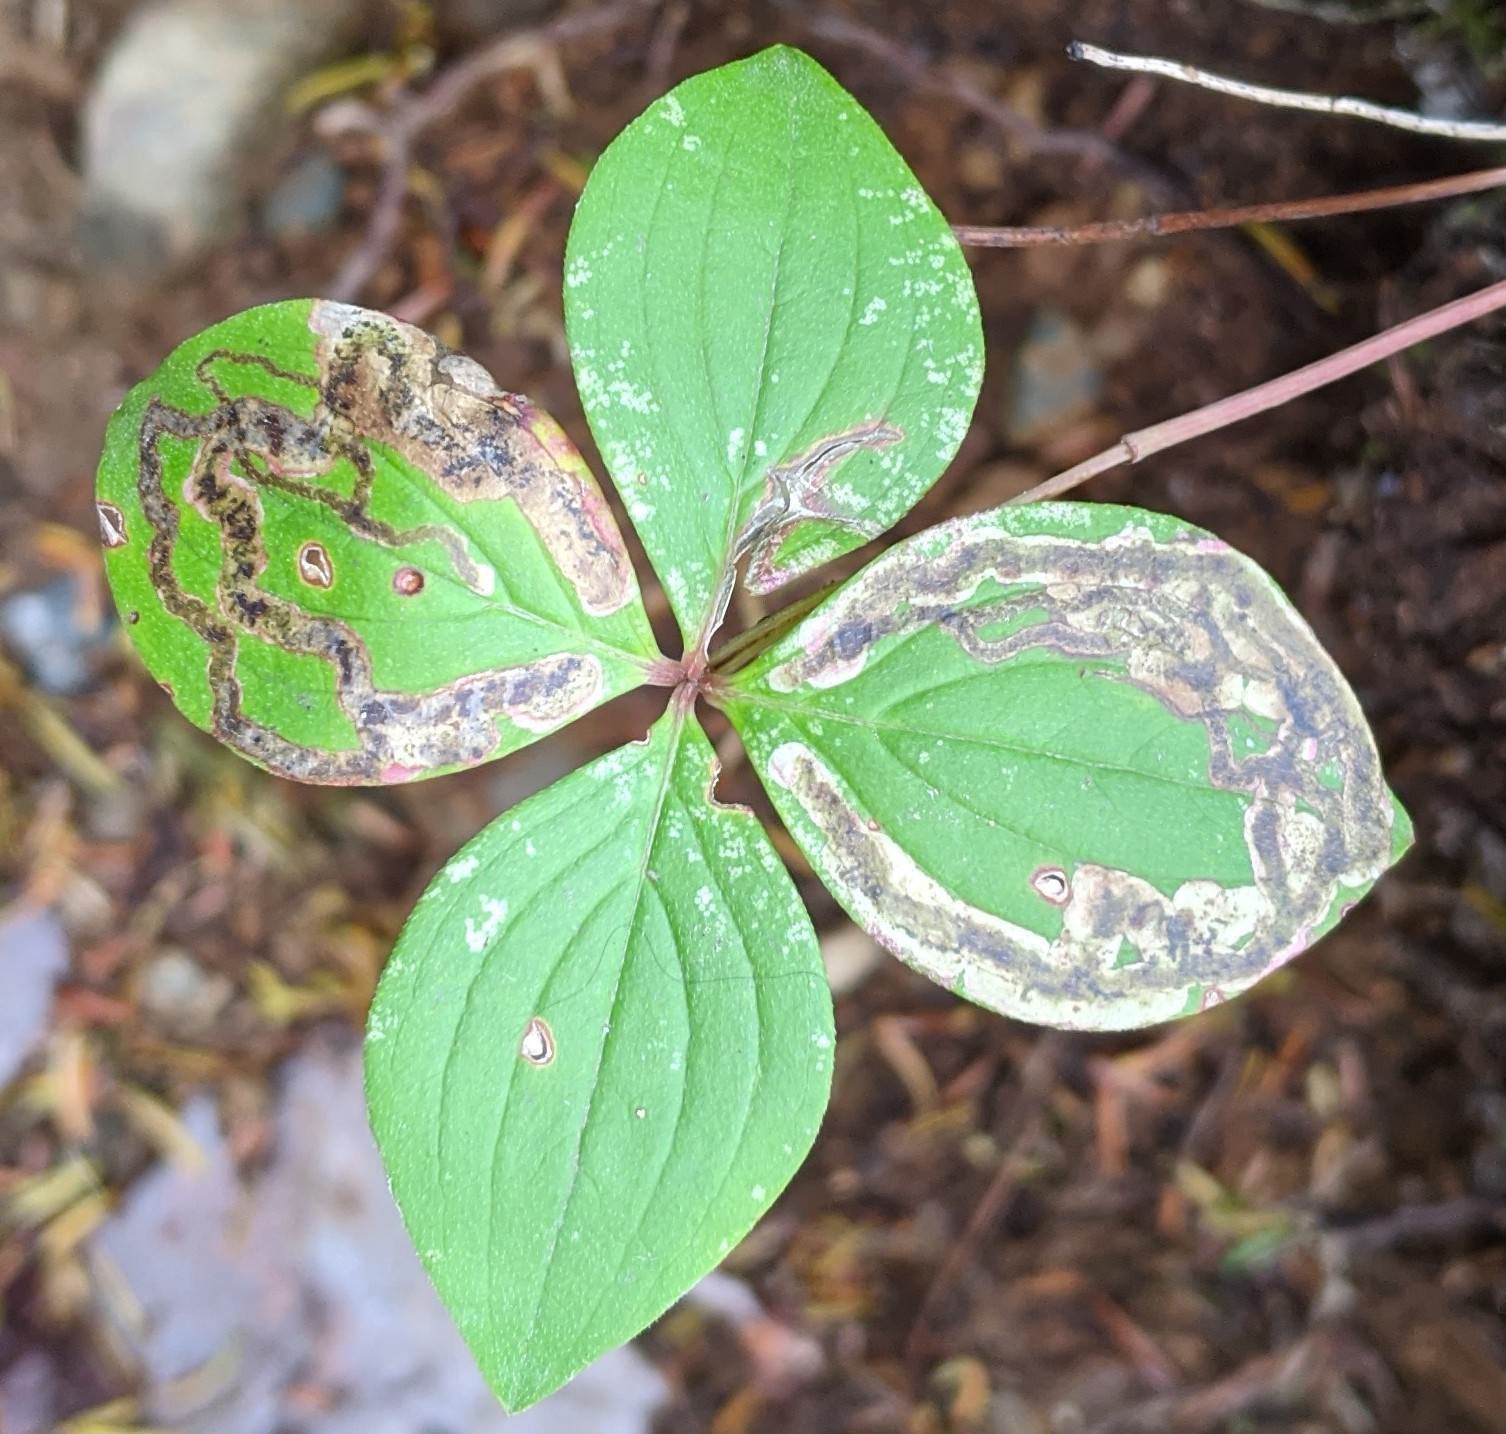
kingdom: Animalia
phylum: Arthropoda
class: Insecta
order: Diptera
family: Agromyzidae
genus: Phytomyza
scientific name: Phytomyza agromyzina
